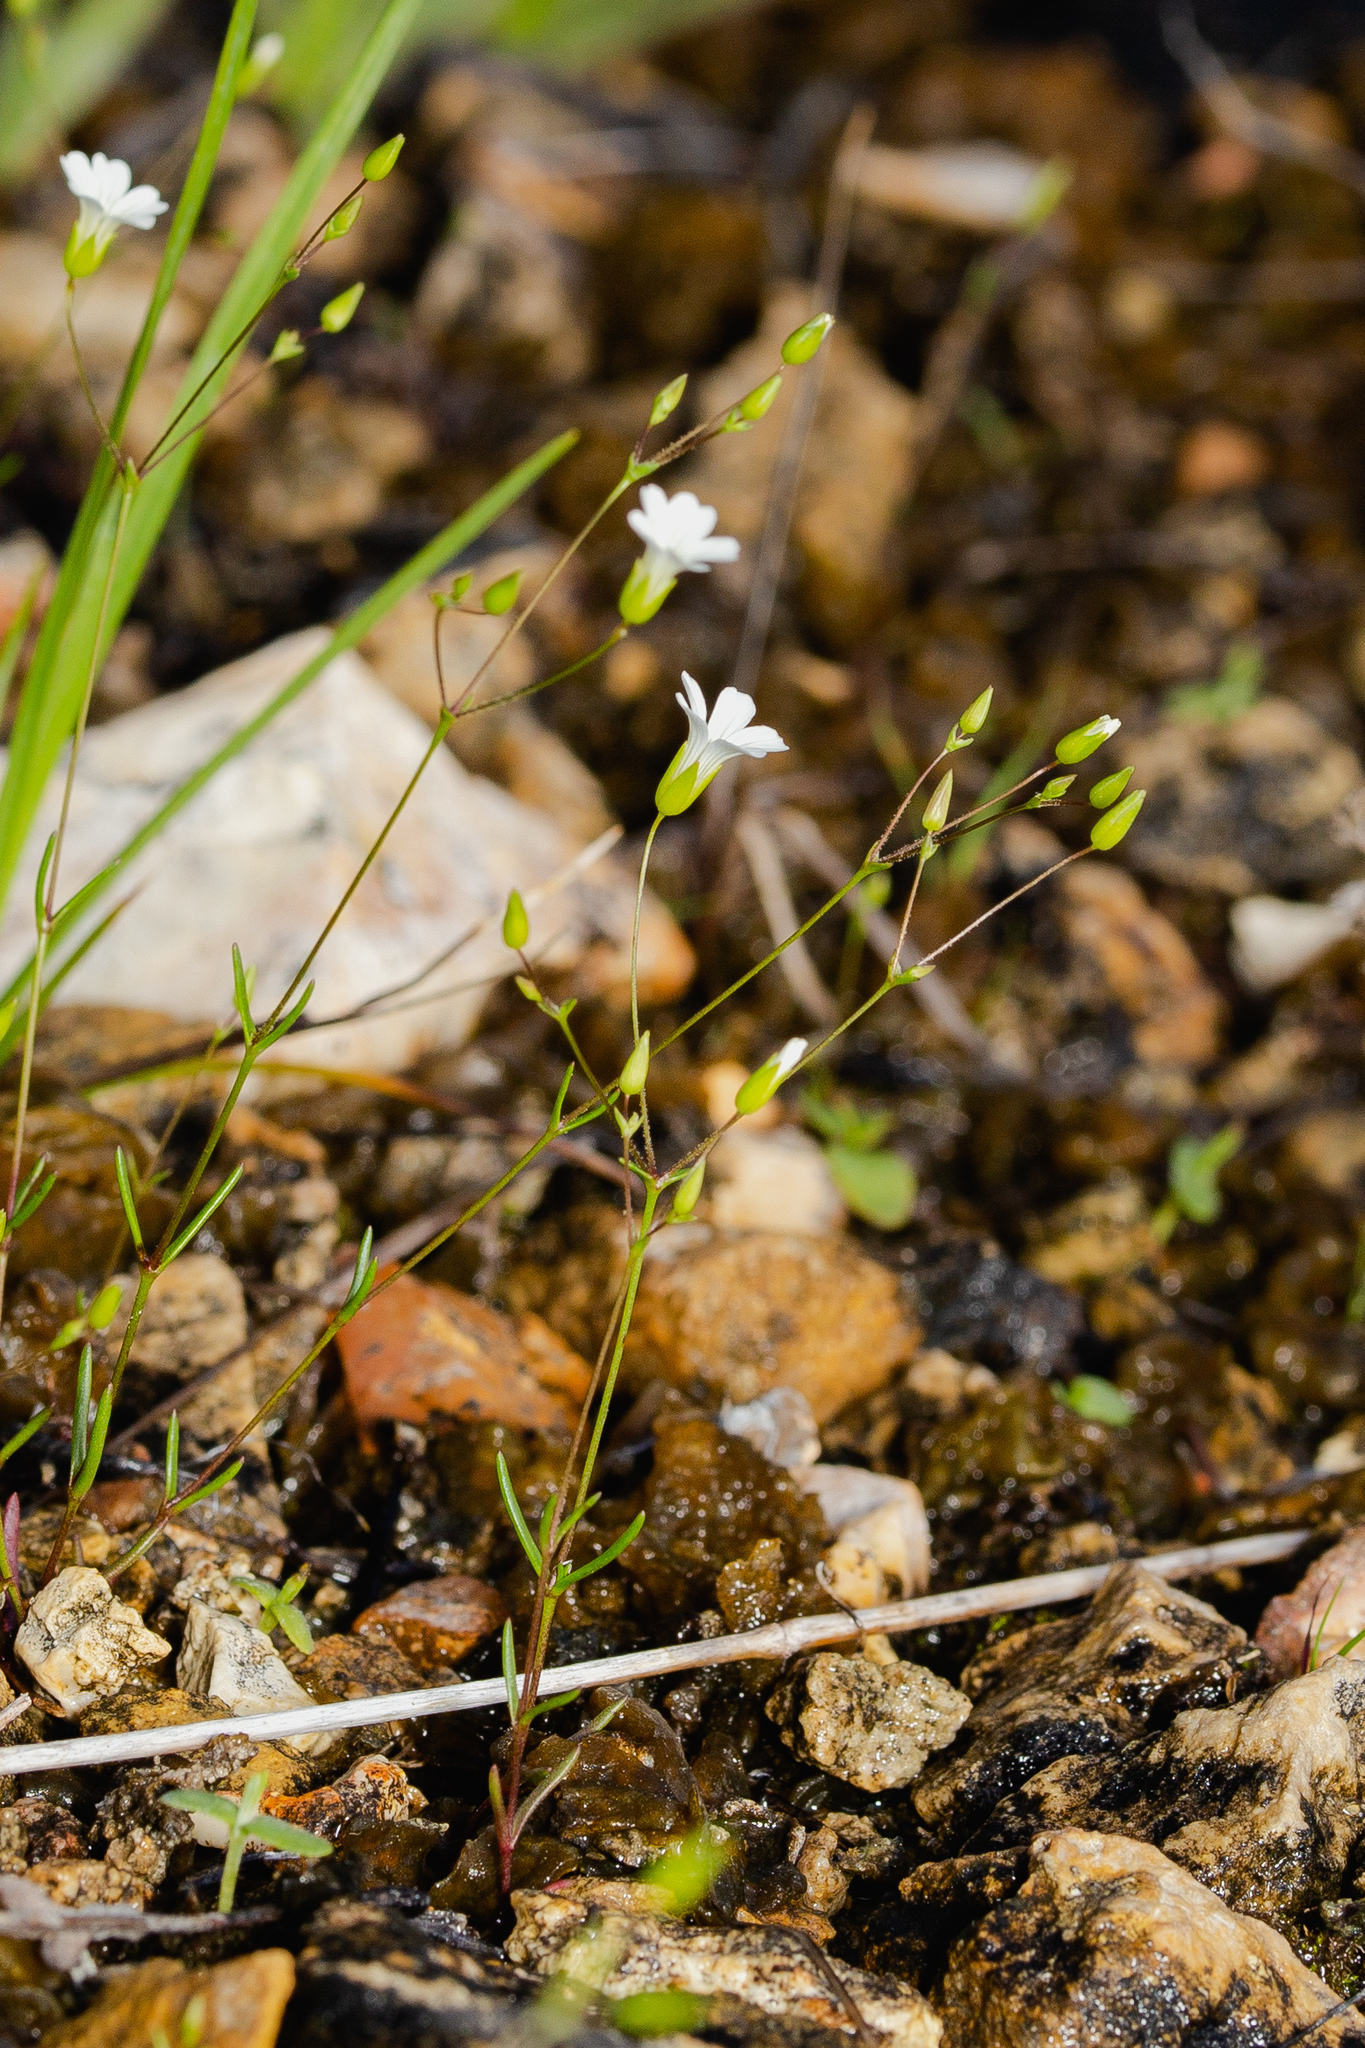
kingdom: Plantae
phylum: Tracheophyta
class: Magnoliopsida
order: Caryophyllales
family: Caryophyllaceae
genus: Mononeuria
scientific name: Mononeuria patula
